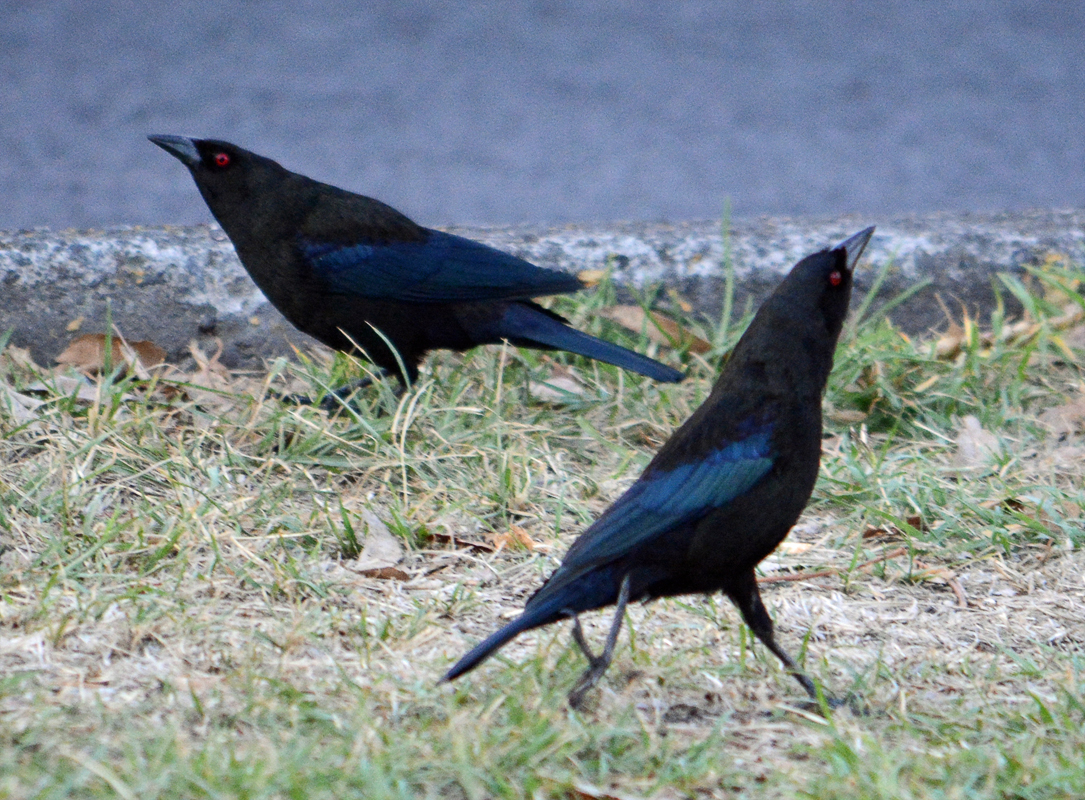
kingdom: Animalia
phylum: Chordata
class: Aves
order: Passeriformes
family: Icteridae
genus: Molothrus
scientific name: Molothrus aeneus
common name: Bronzed cowbird
